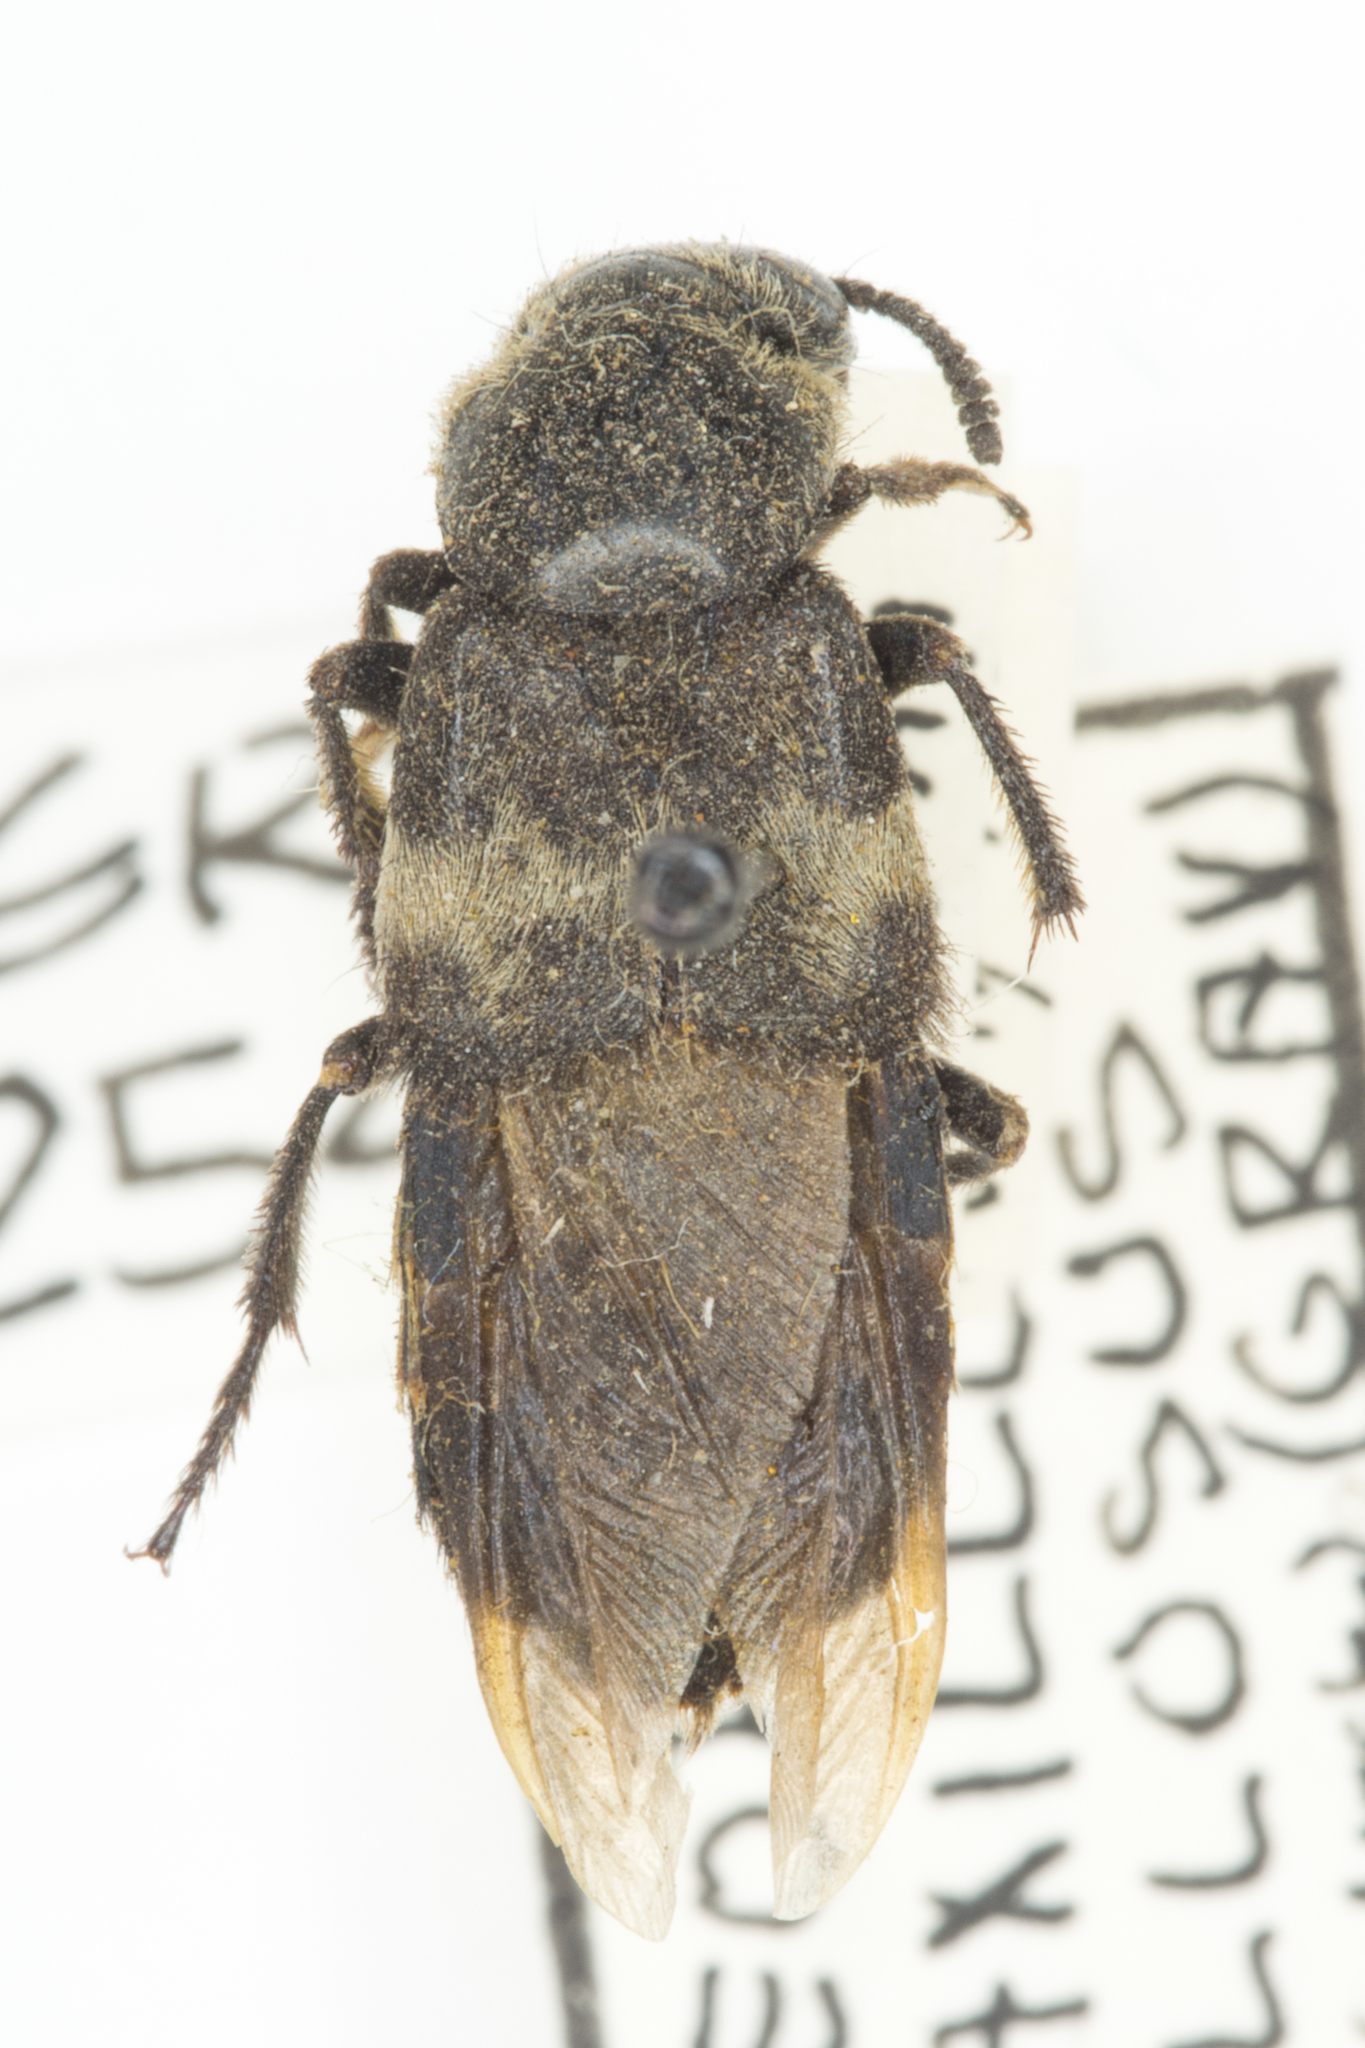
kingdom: Animalia
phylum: Arthropoda
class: Insecta
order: Coleoptera
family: Staphylinidae
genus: Creophilus
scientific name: Creophilus maxillosus
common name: Hairy rove beetle
